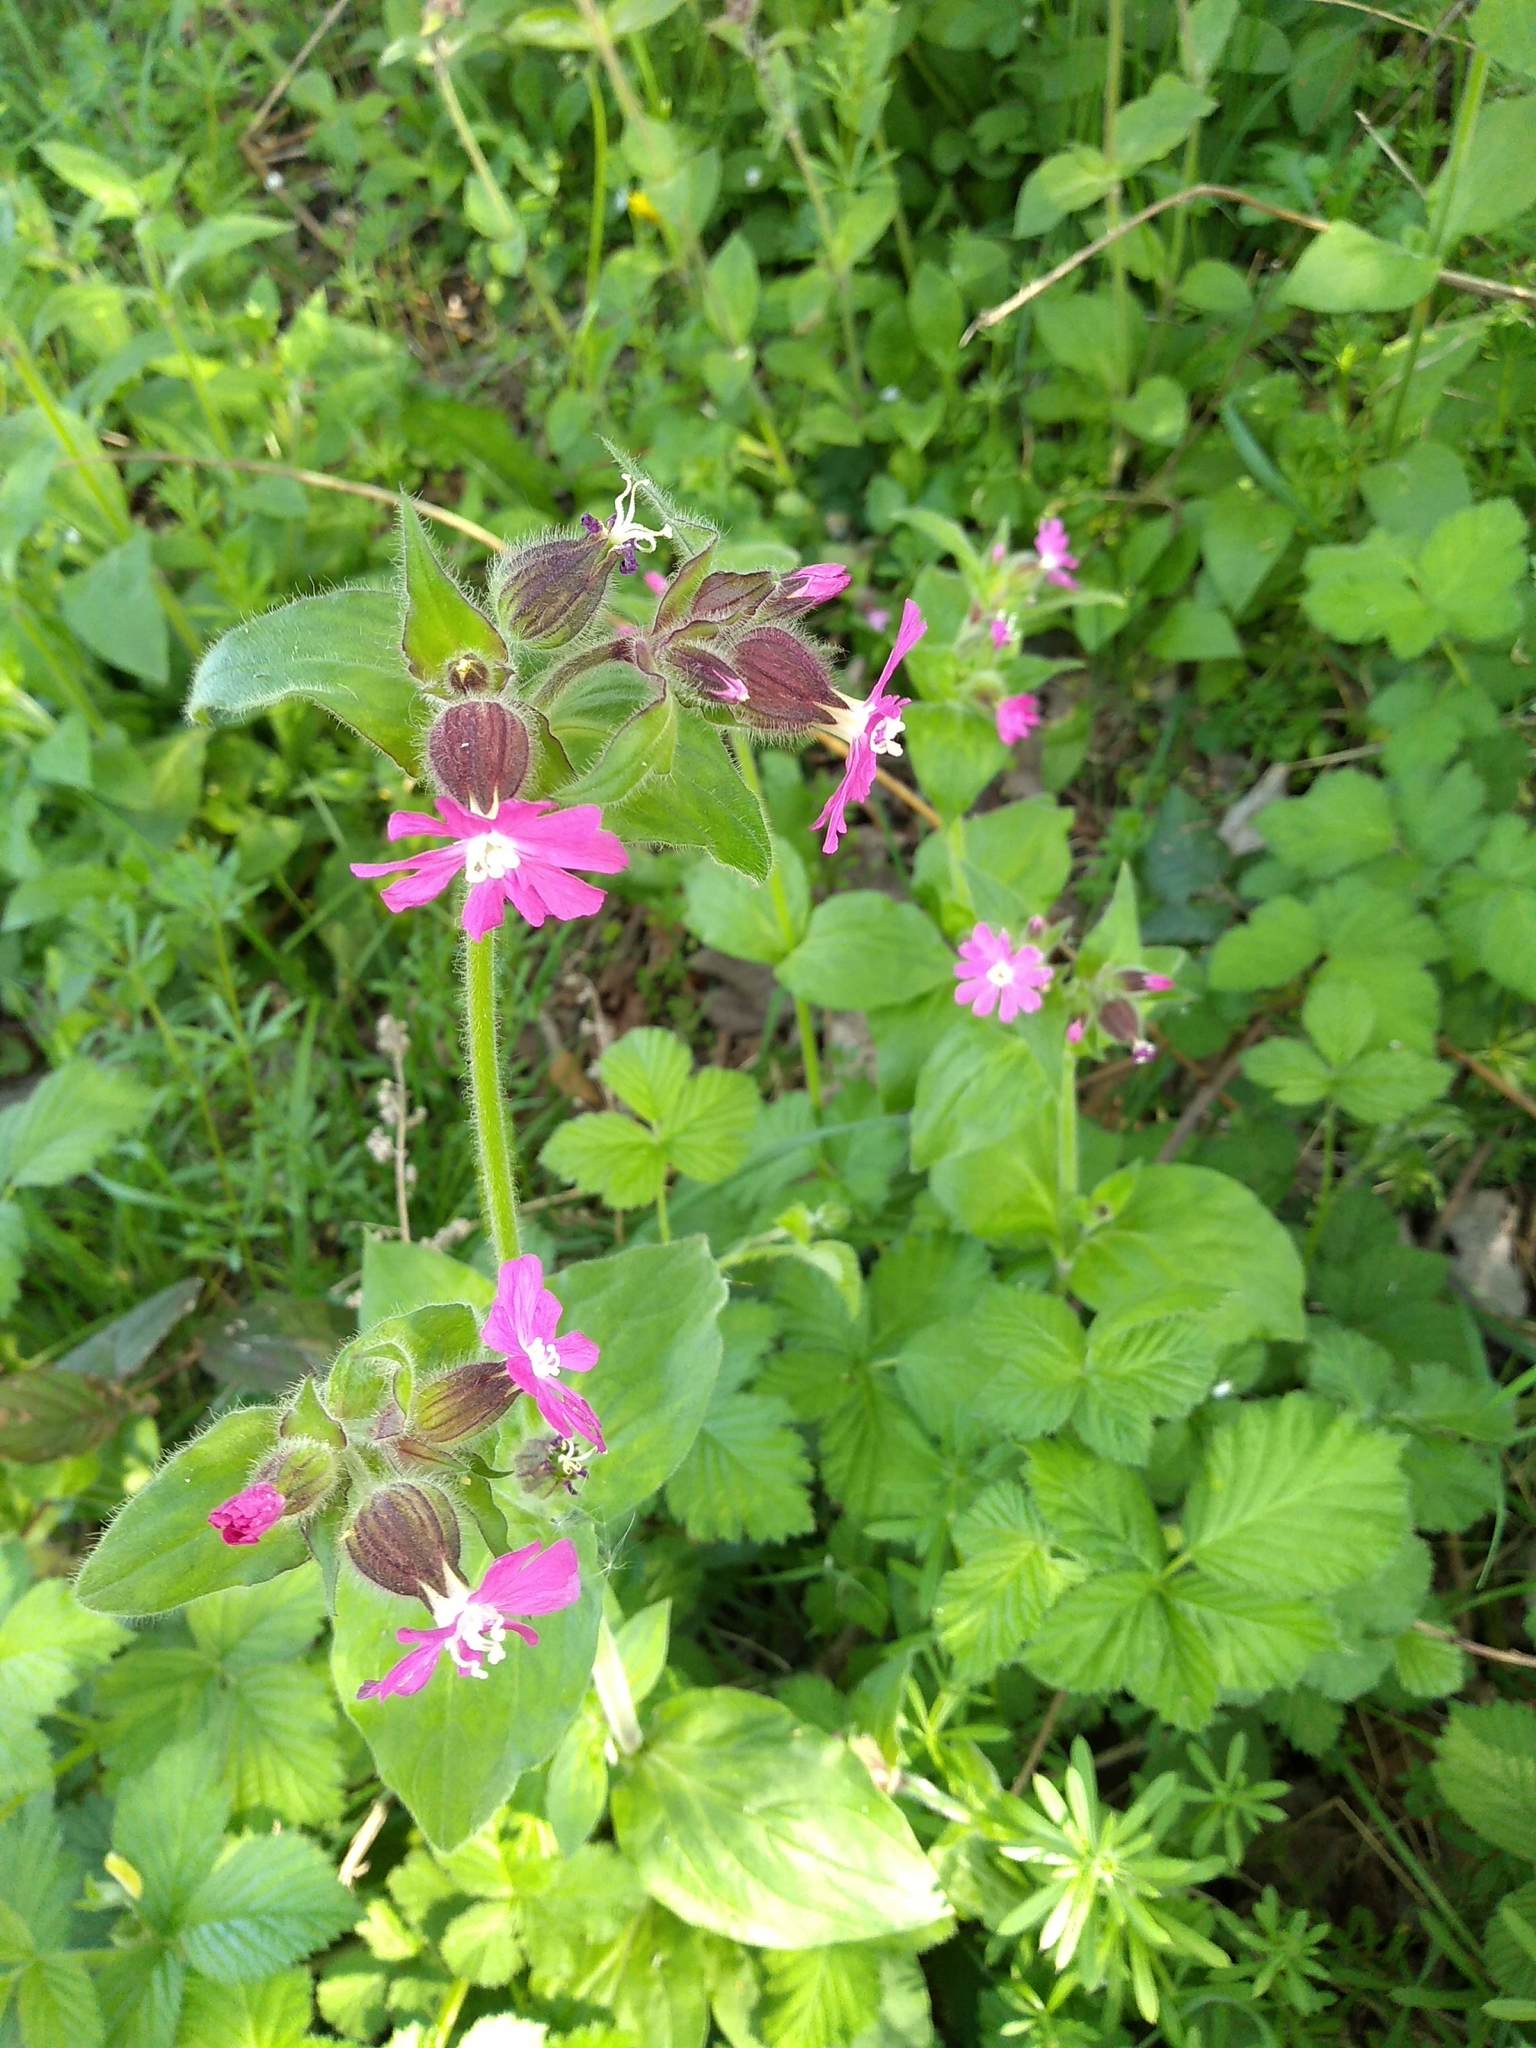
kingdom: Plantae
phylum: Tracheophyta
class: Magnoliopsida
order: Caryophyllales
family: Caryophyllaceae
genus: Silene
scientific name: Silene dioica
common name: Red campion
